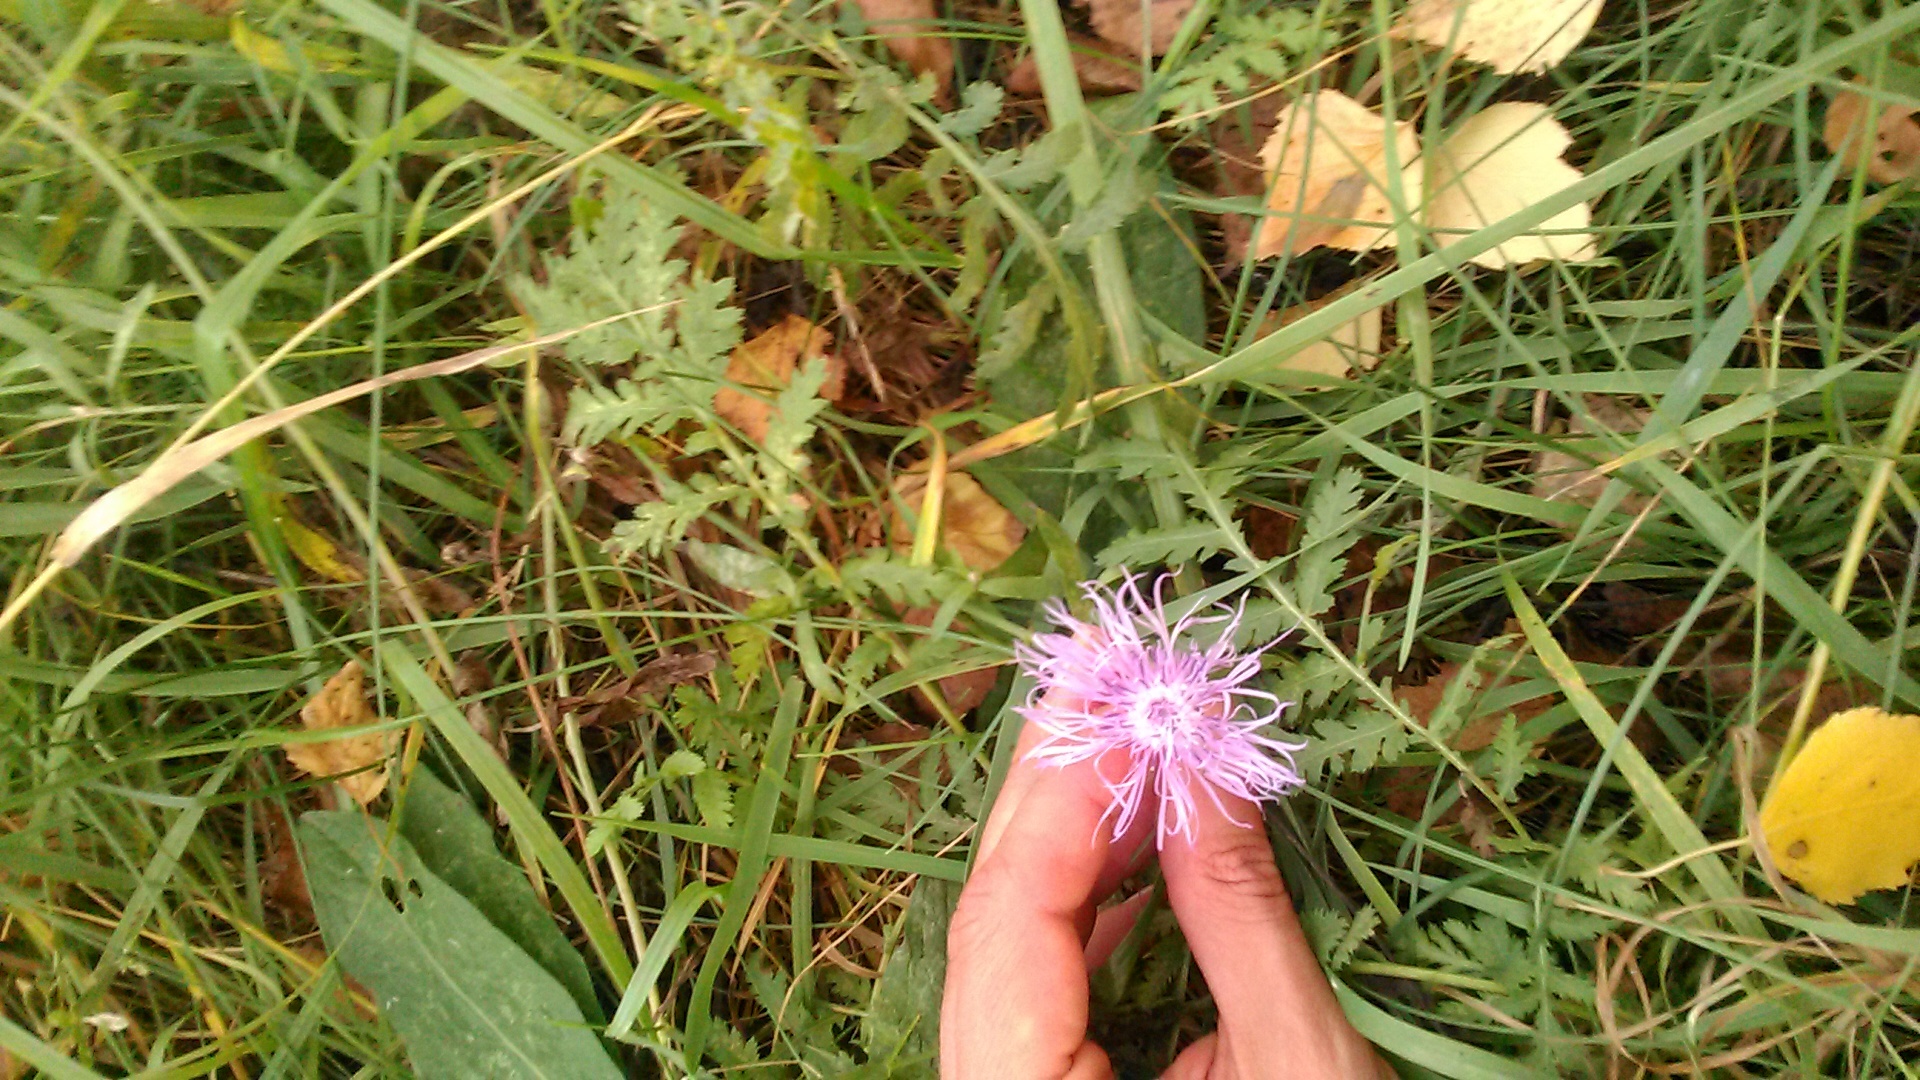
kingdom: Plantae
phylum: Tracheophyta
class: Magnoliopsida
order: Asterales
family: Asteraceae
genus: Centaurea
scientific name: Centaurea jacea
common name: Brown knapweed
